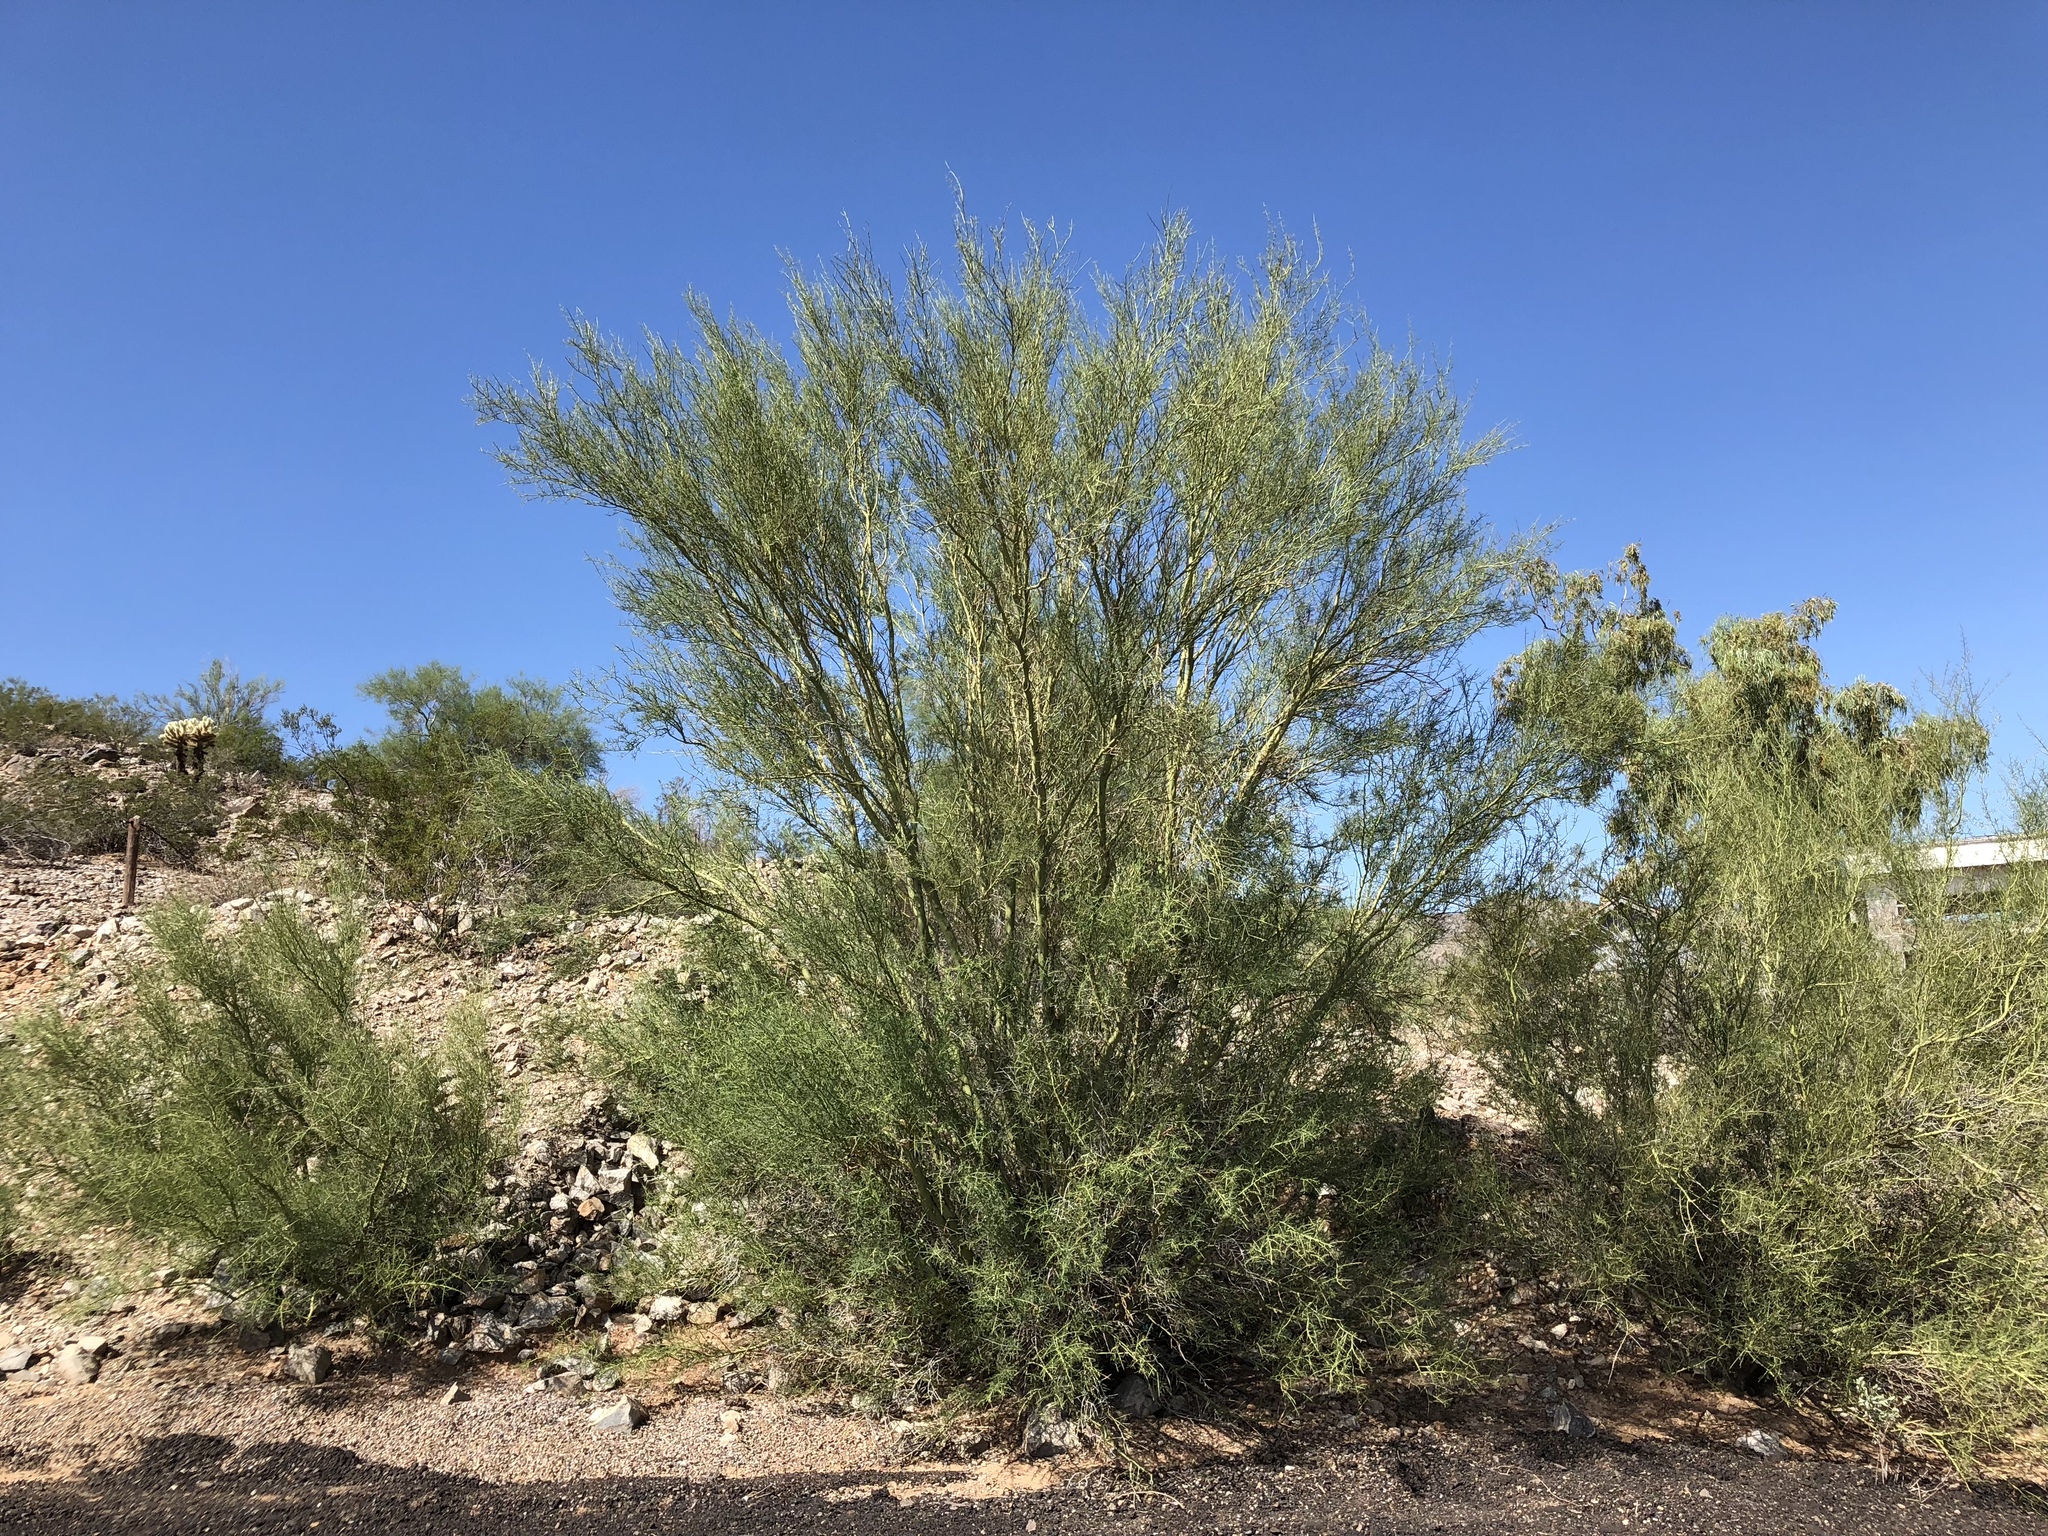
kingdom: Plantae
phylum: Tracheophyta
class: Magnoliopsida
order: Fabales
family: Fabaceae
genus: Parkinsonia
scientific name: Parkinsonia microphylla
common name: Yellow paloverde
